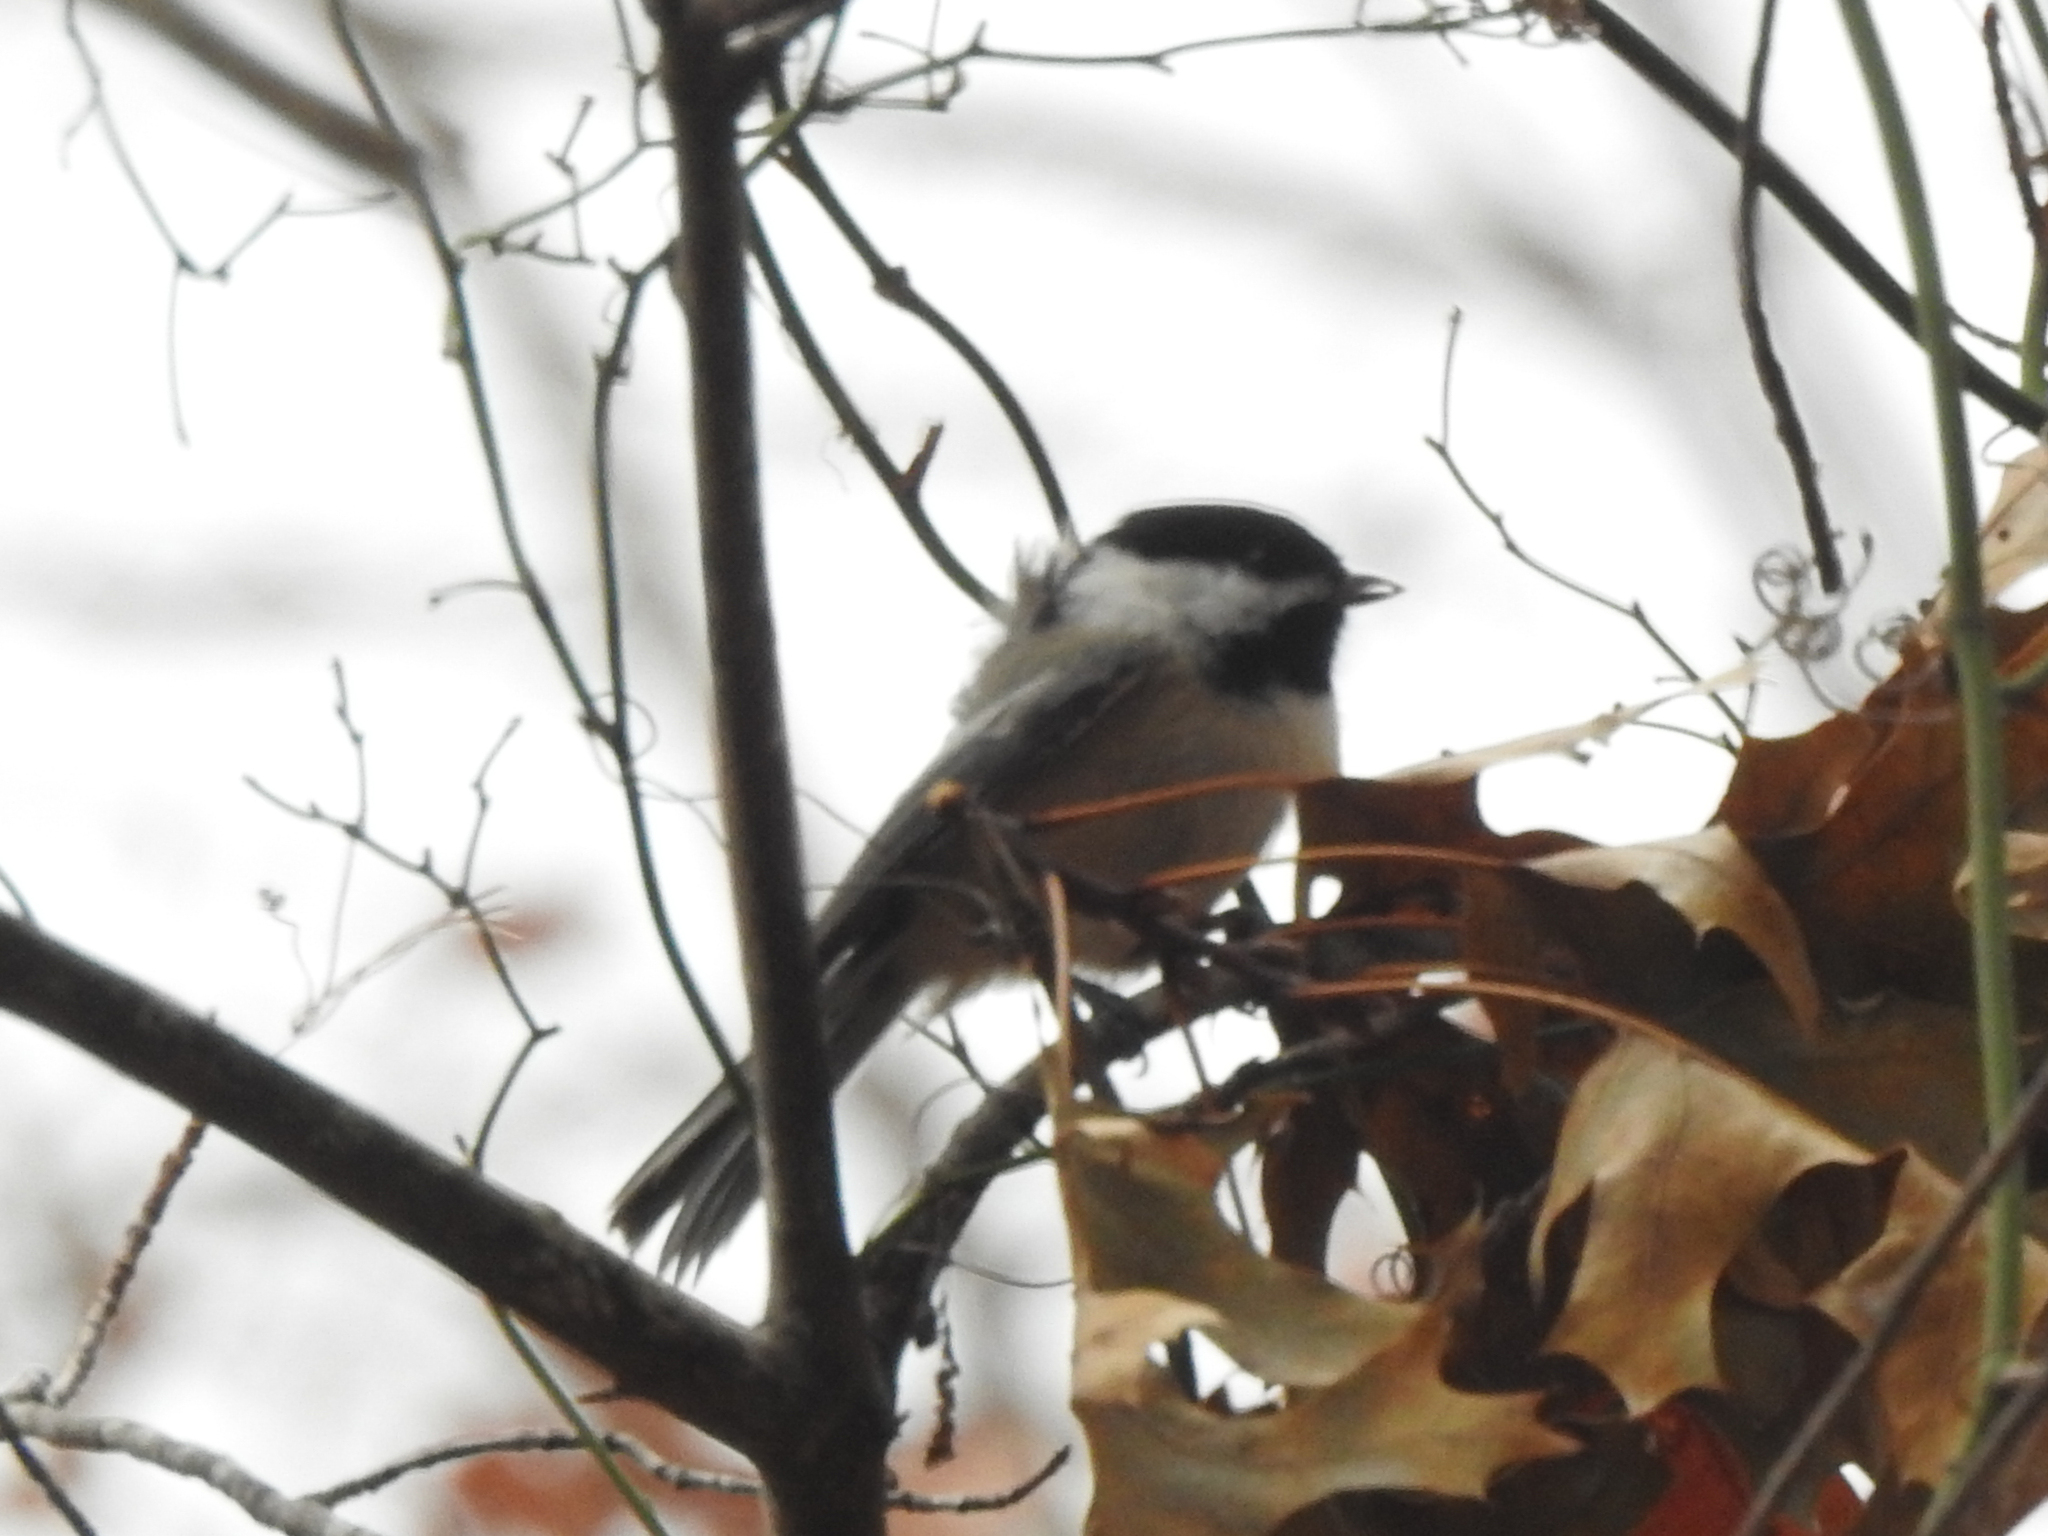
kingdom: Animalia
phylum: Chordata
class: Aves
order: Passeriformes
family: Paridae
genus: Poecile
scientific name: Poecile atricapillus
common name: Black-capped chickadee
